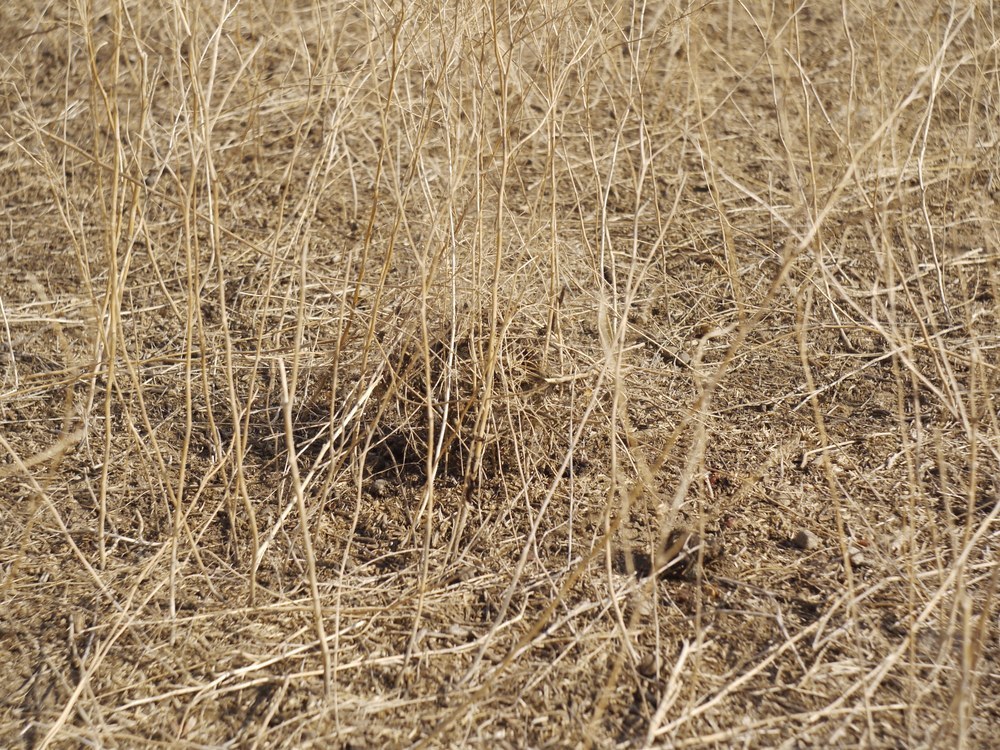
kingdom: Animalia
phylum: Arthropoda
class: Arachnida
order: Araneae
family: Theridiidae
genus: Latrodectus
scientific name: Latrodectus tredecimguttatus
